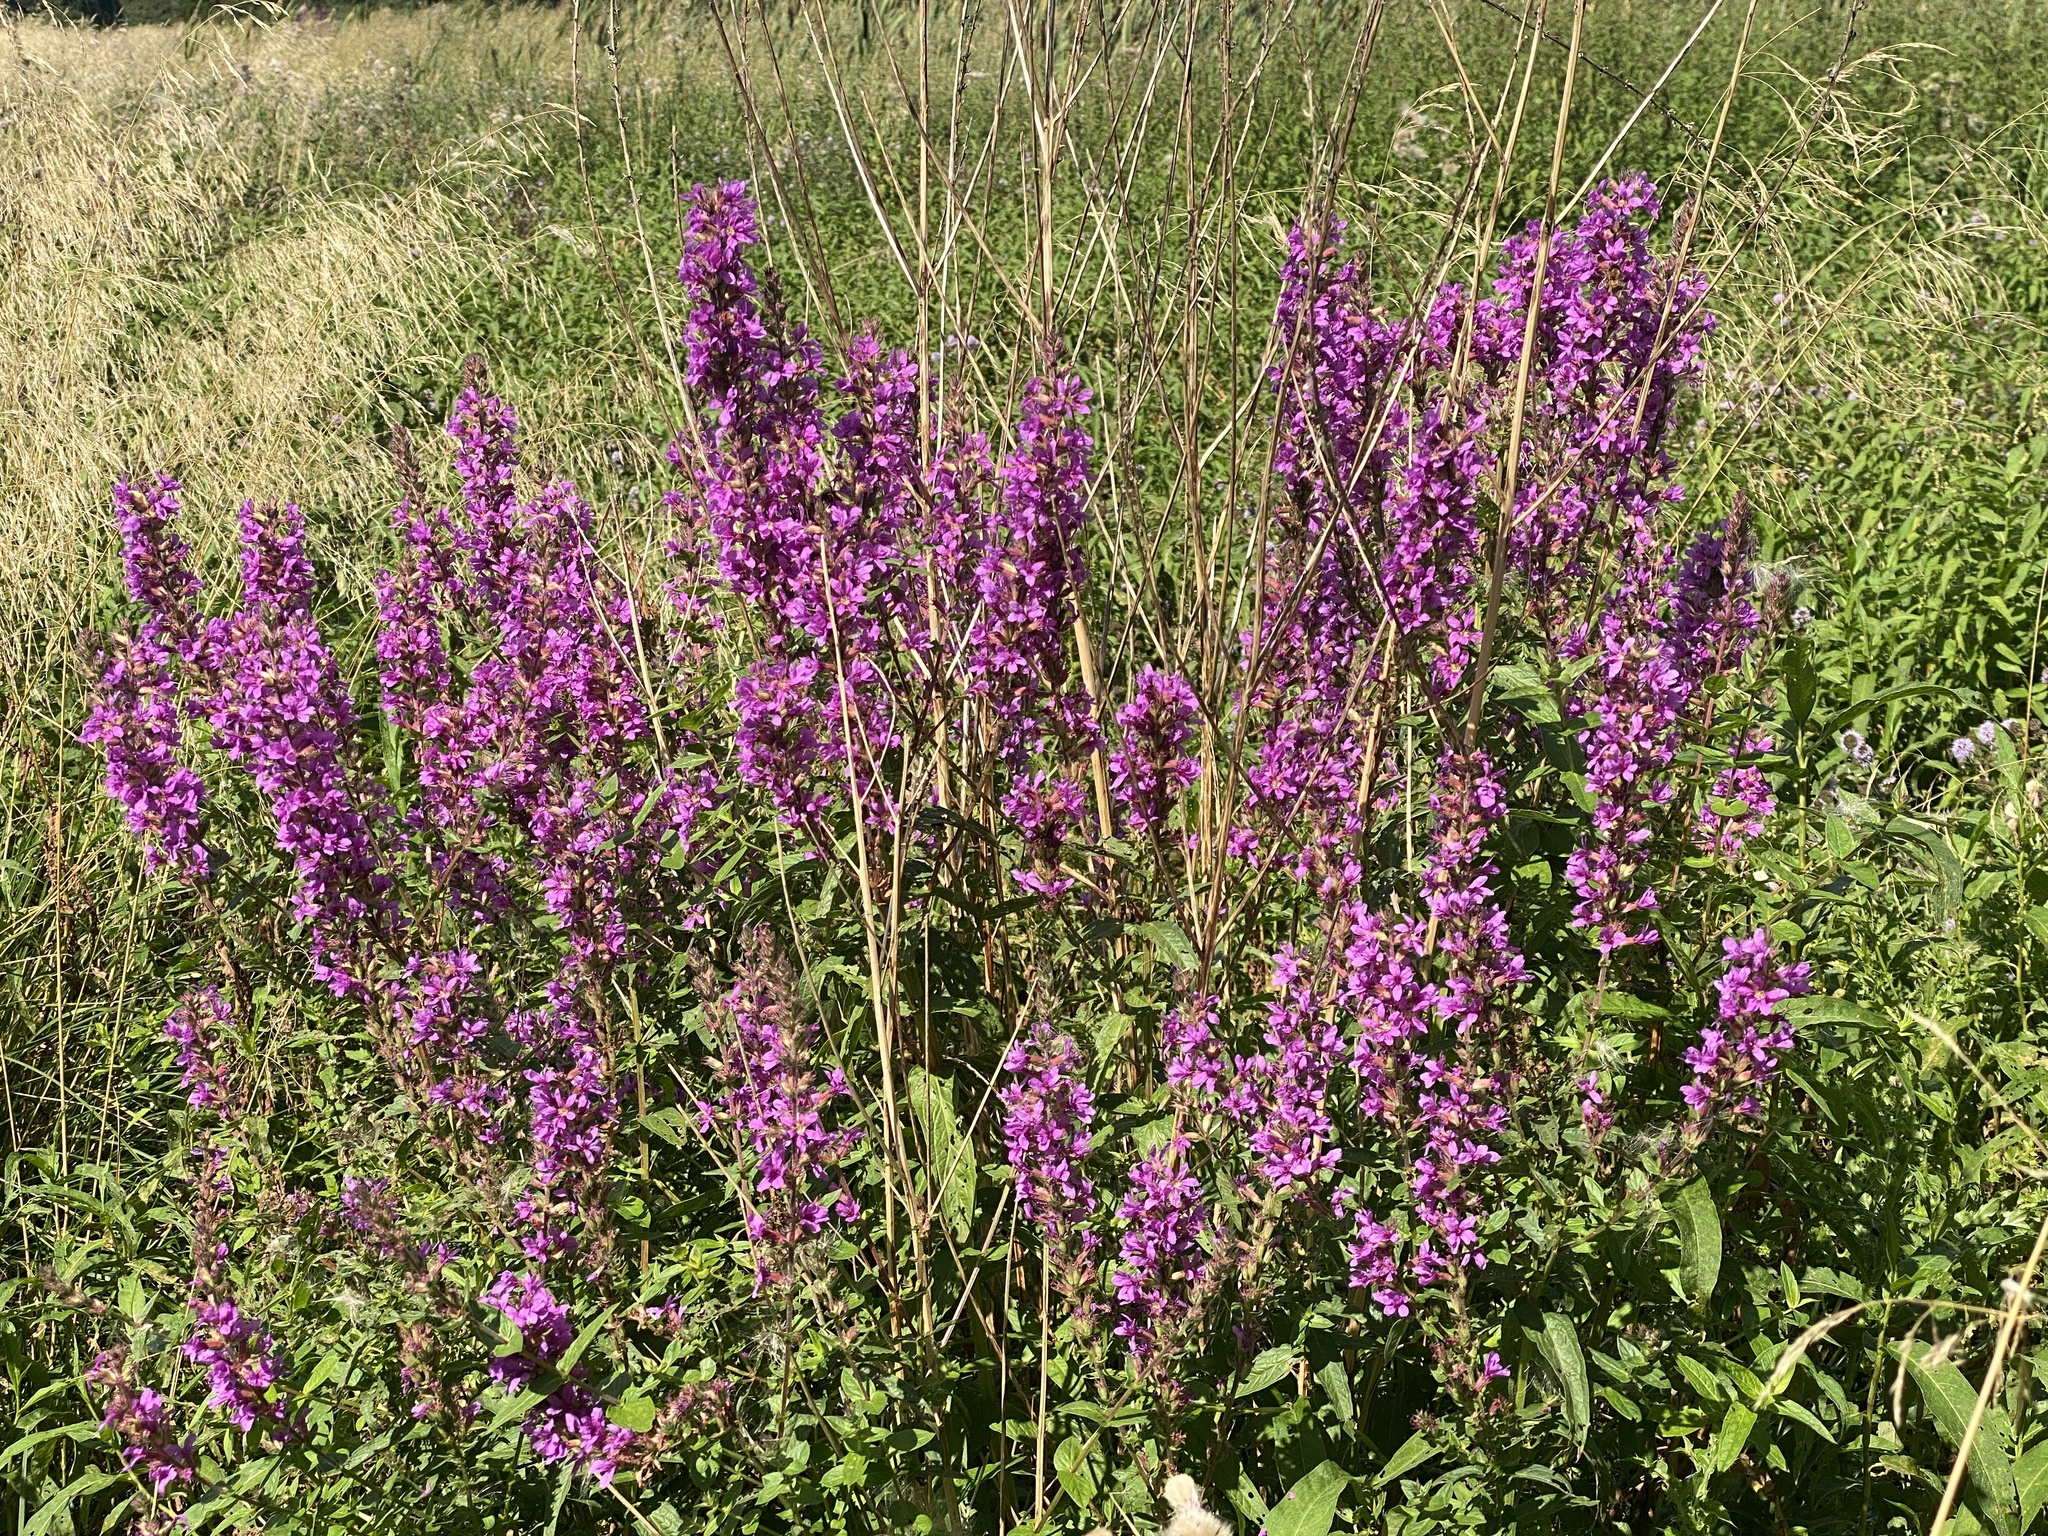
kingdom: Plantae
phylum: Tracheophyta
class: Magnoliopsida
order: Myrtales
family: Lythraceae
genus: Lythrum
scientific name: Lythrum salicaria
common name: Purple loosestrife
